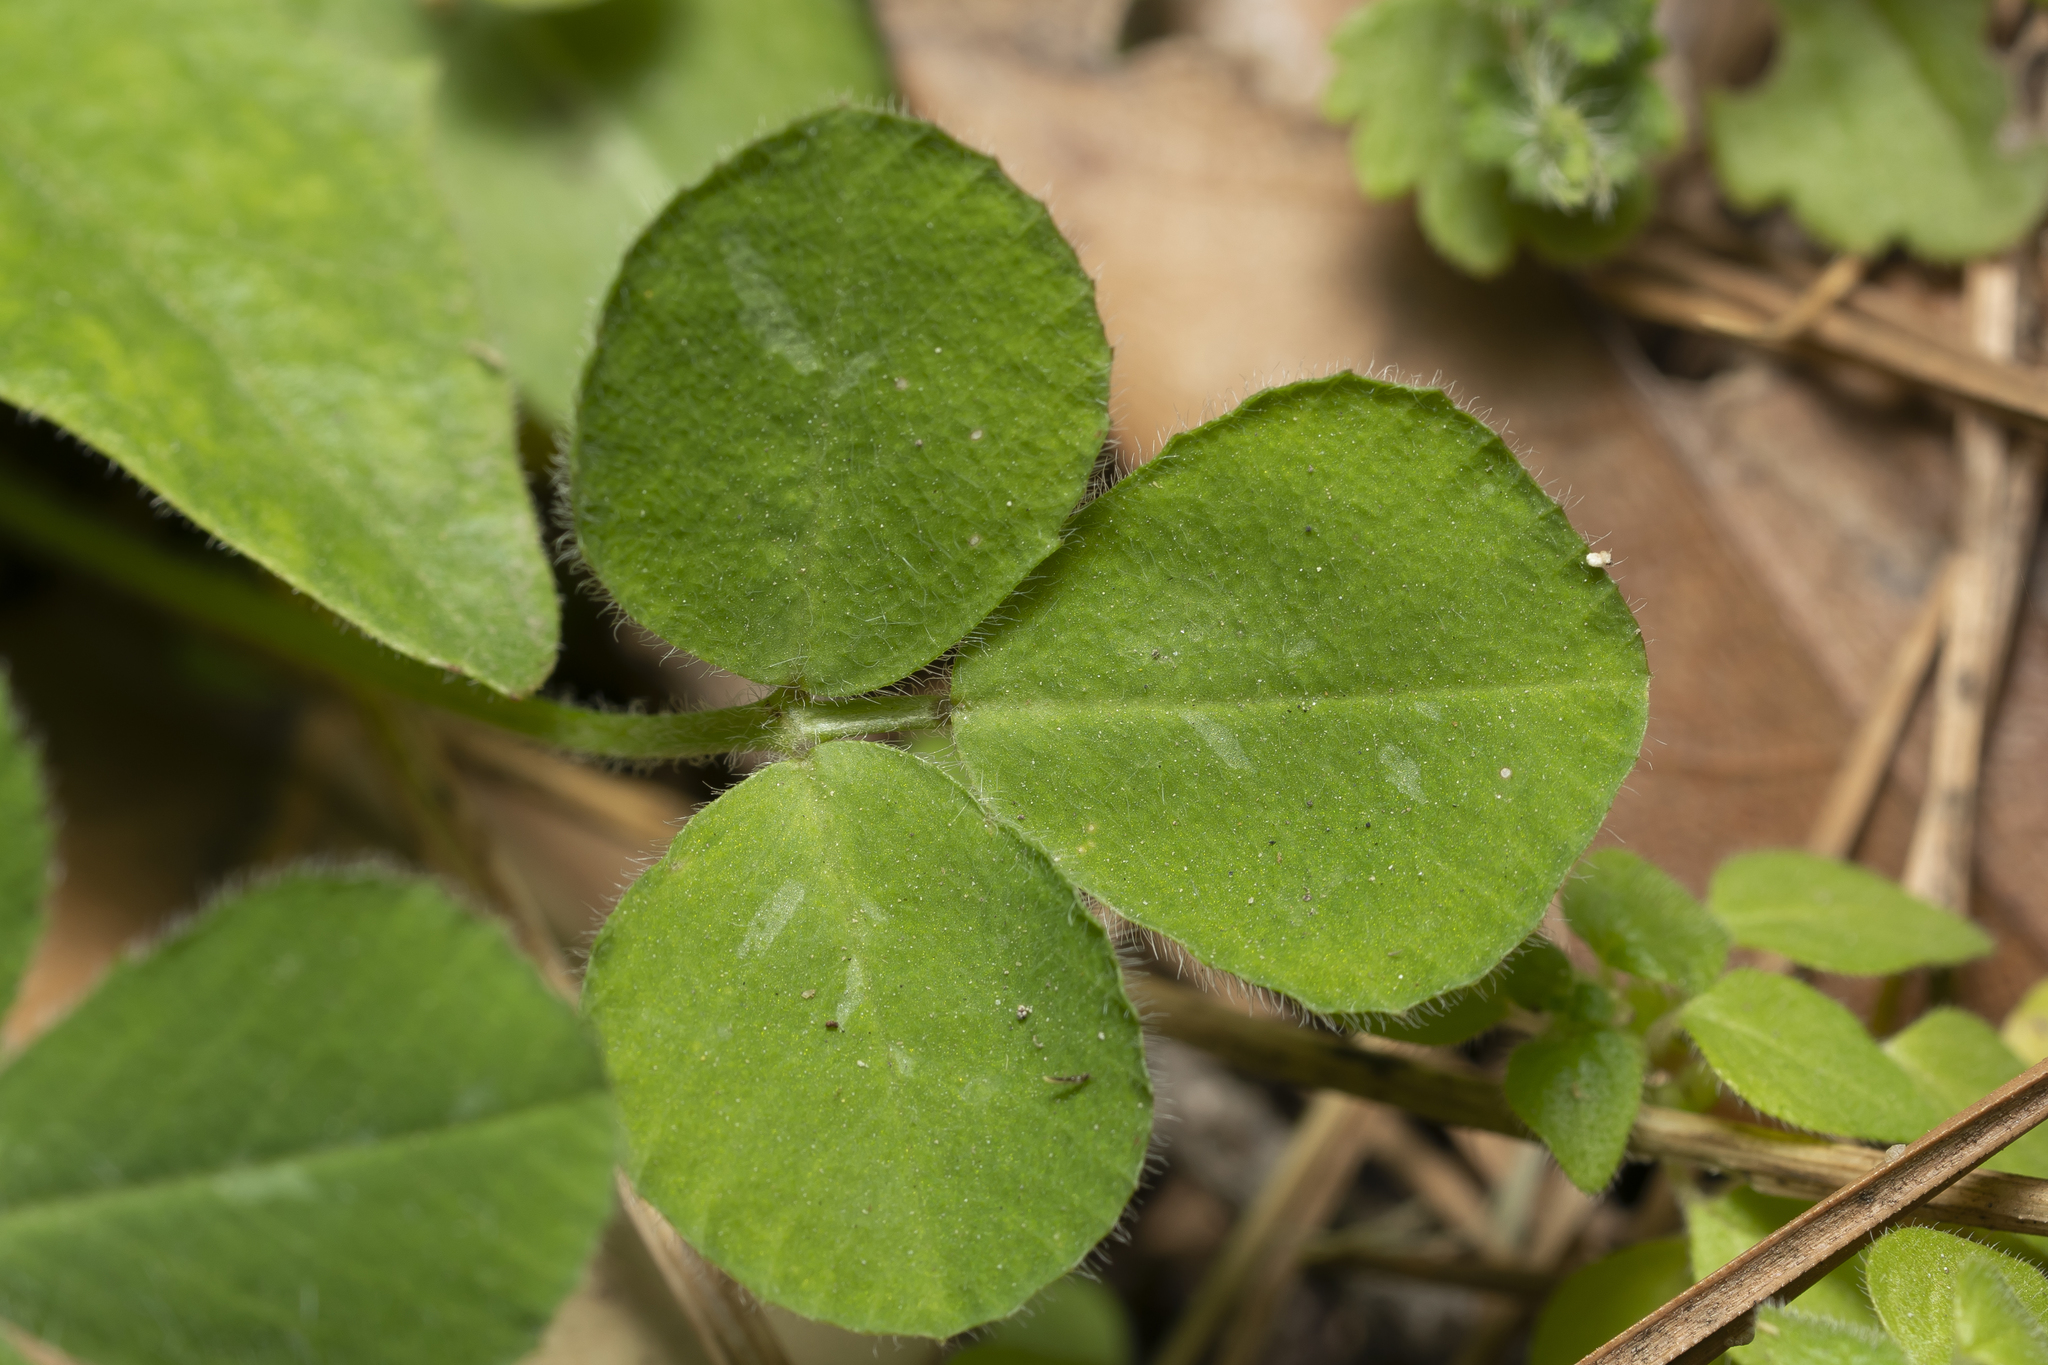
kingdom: Plantae
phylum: Tracheophyta
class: Magnoliopsida
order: Fabales
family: Fabaceae
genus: Medicago
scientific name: Medicago
